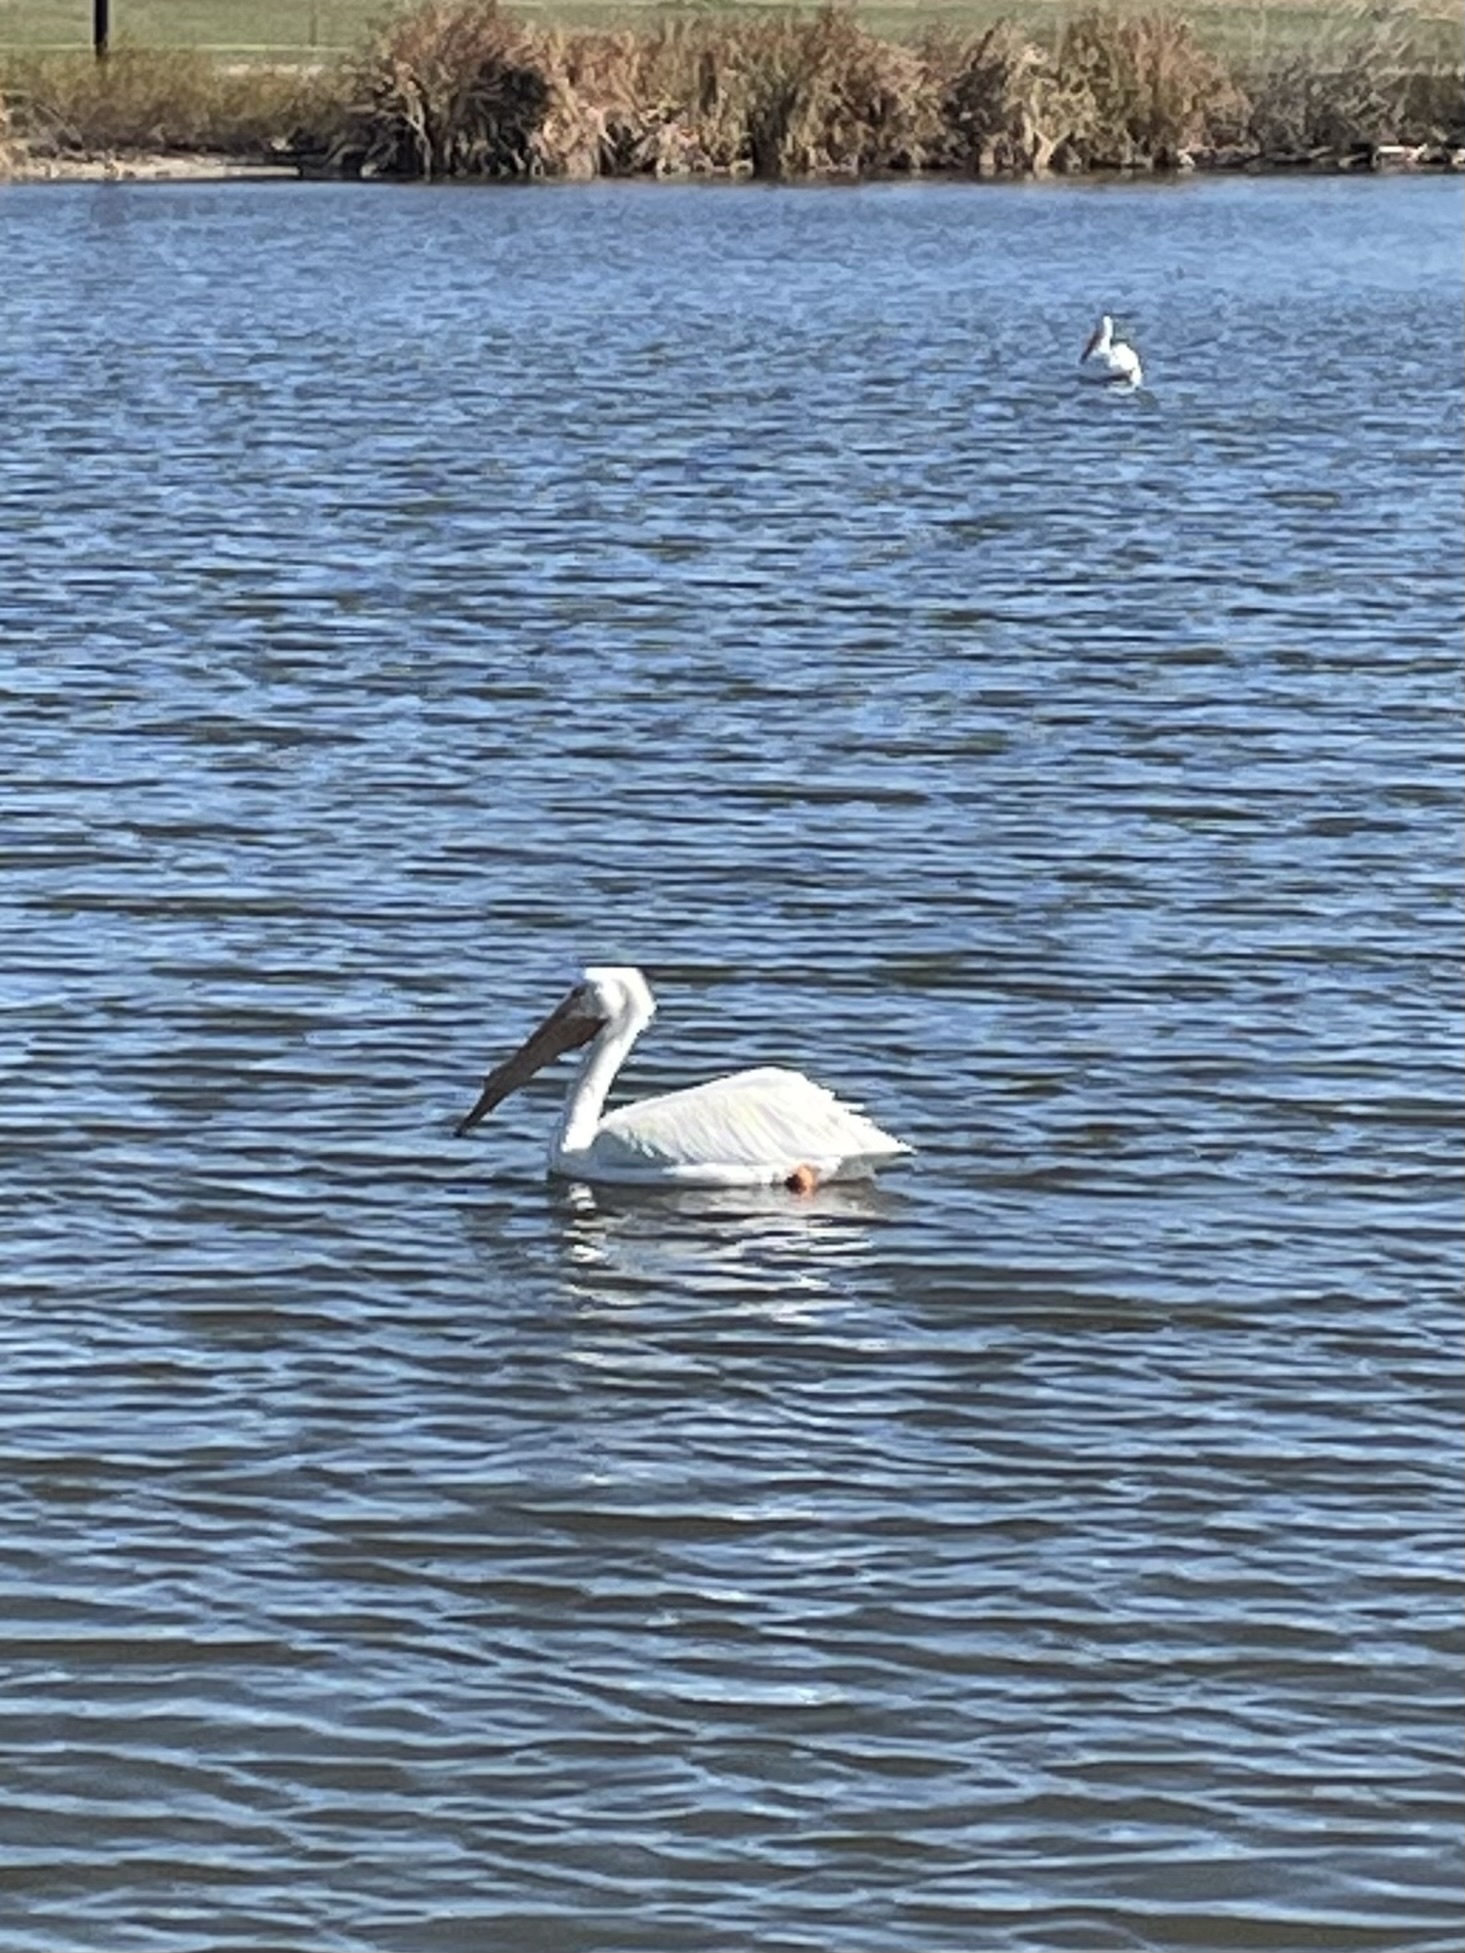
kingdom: Animalia
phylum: Chordata
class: Aves
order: Pelecaniformes
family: Pelecanidae
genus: Pelecanus
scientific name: Pelecanus erythrorhynchos
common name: American white pelican
